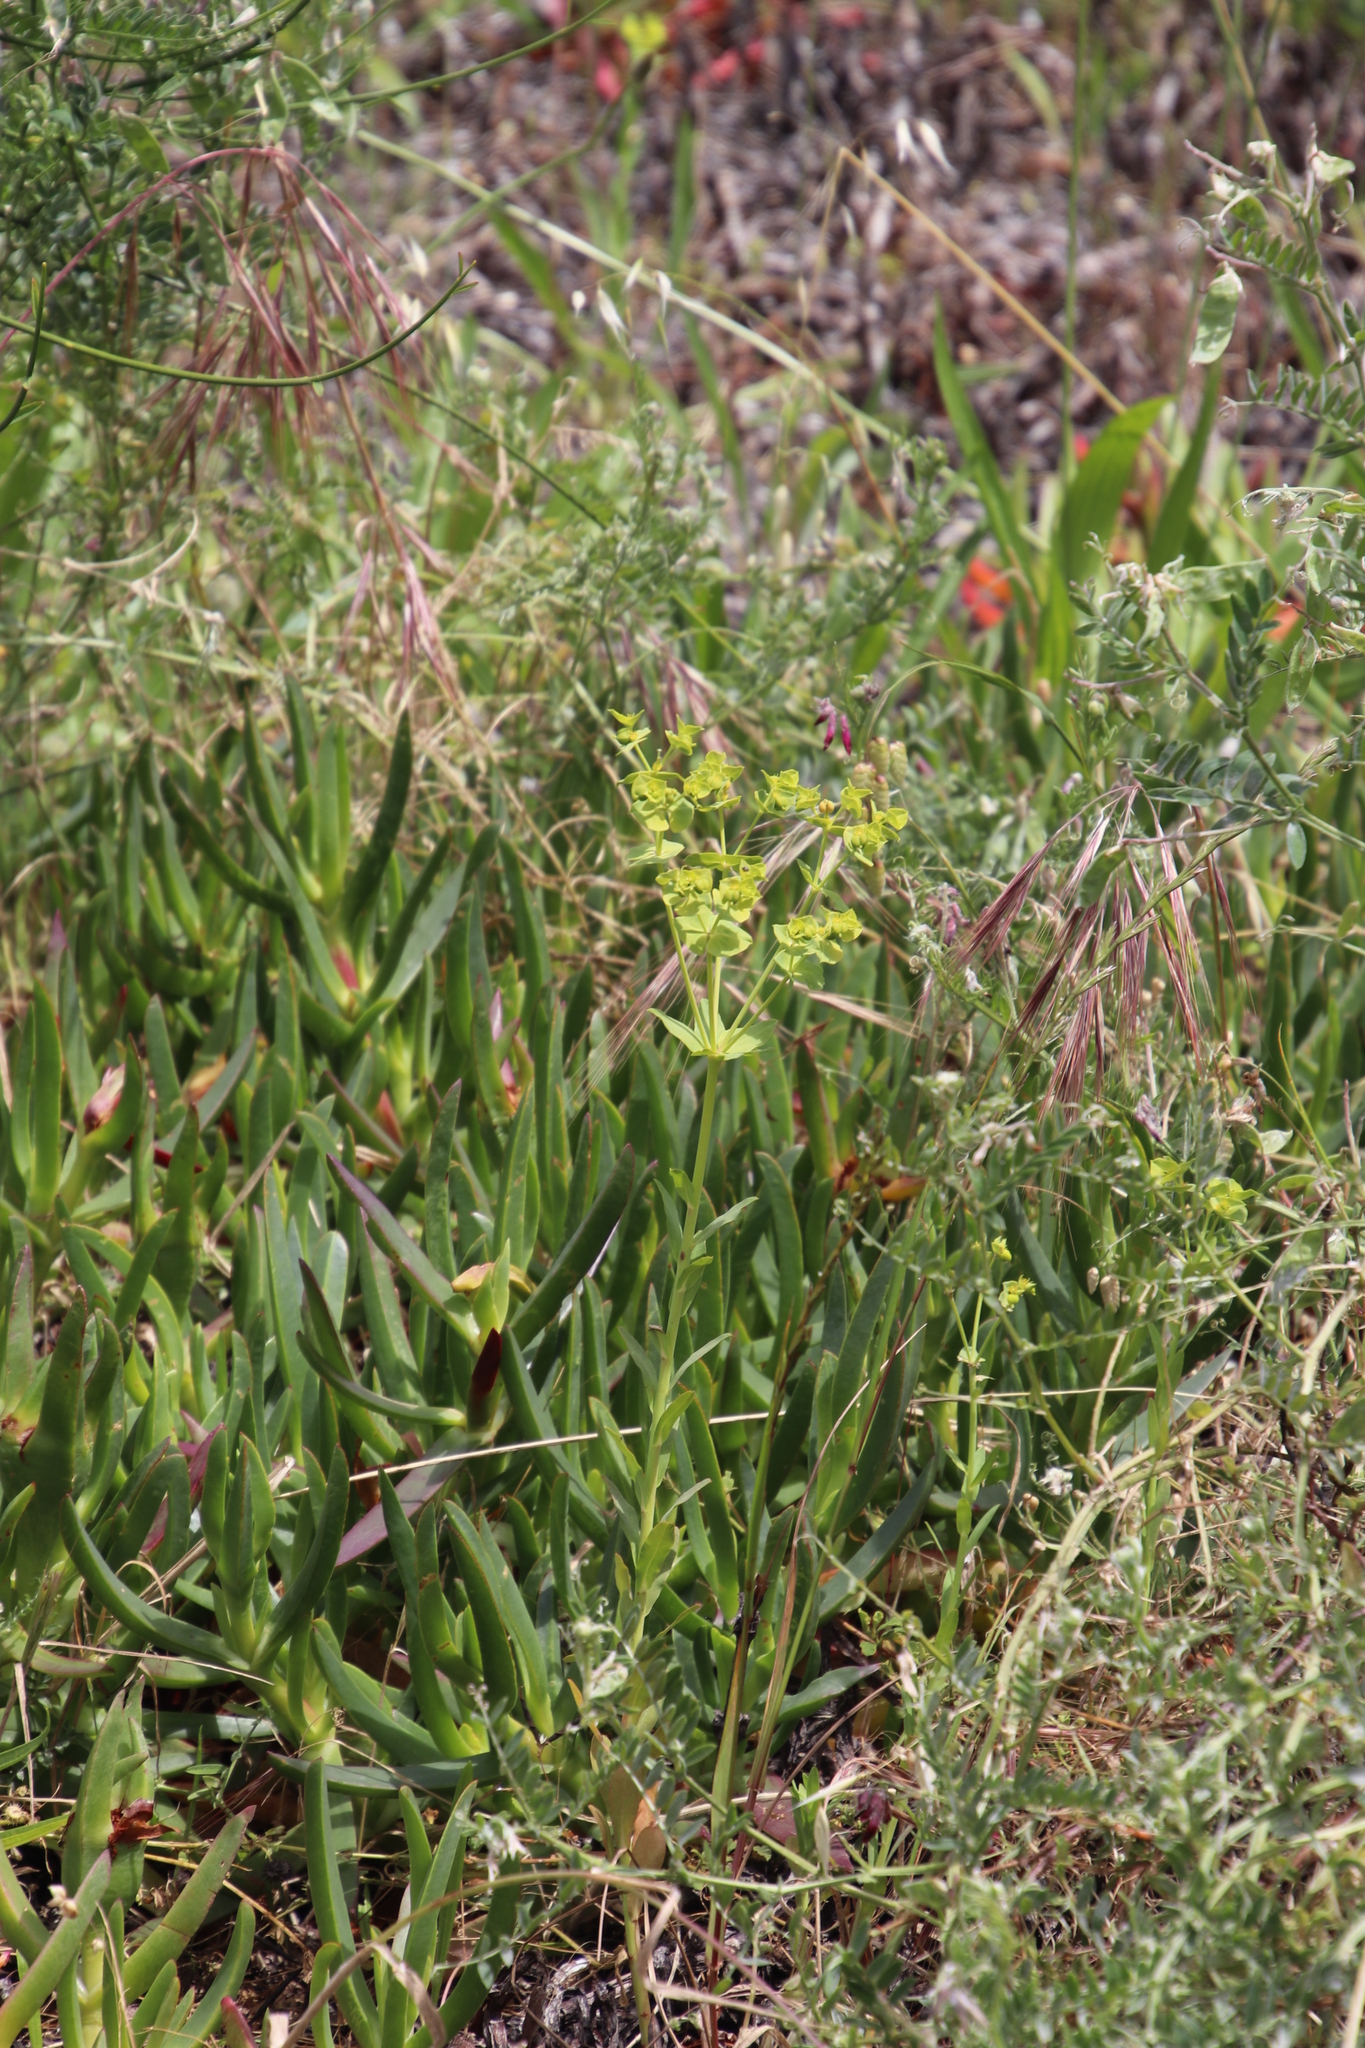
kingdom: Plantae
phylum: Tracheophyta
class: Magnoliopsida
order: Malpighiales
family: Euphorbiaceae
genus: Euphorbia
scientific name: Euphorbia terracina
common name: Geraldton carnation weed
